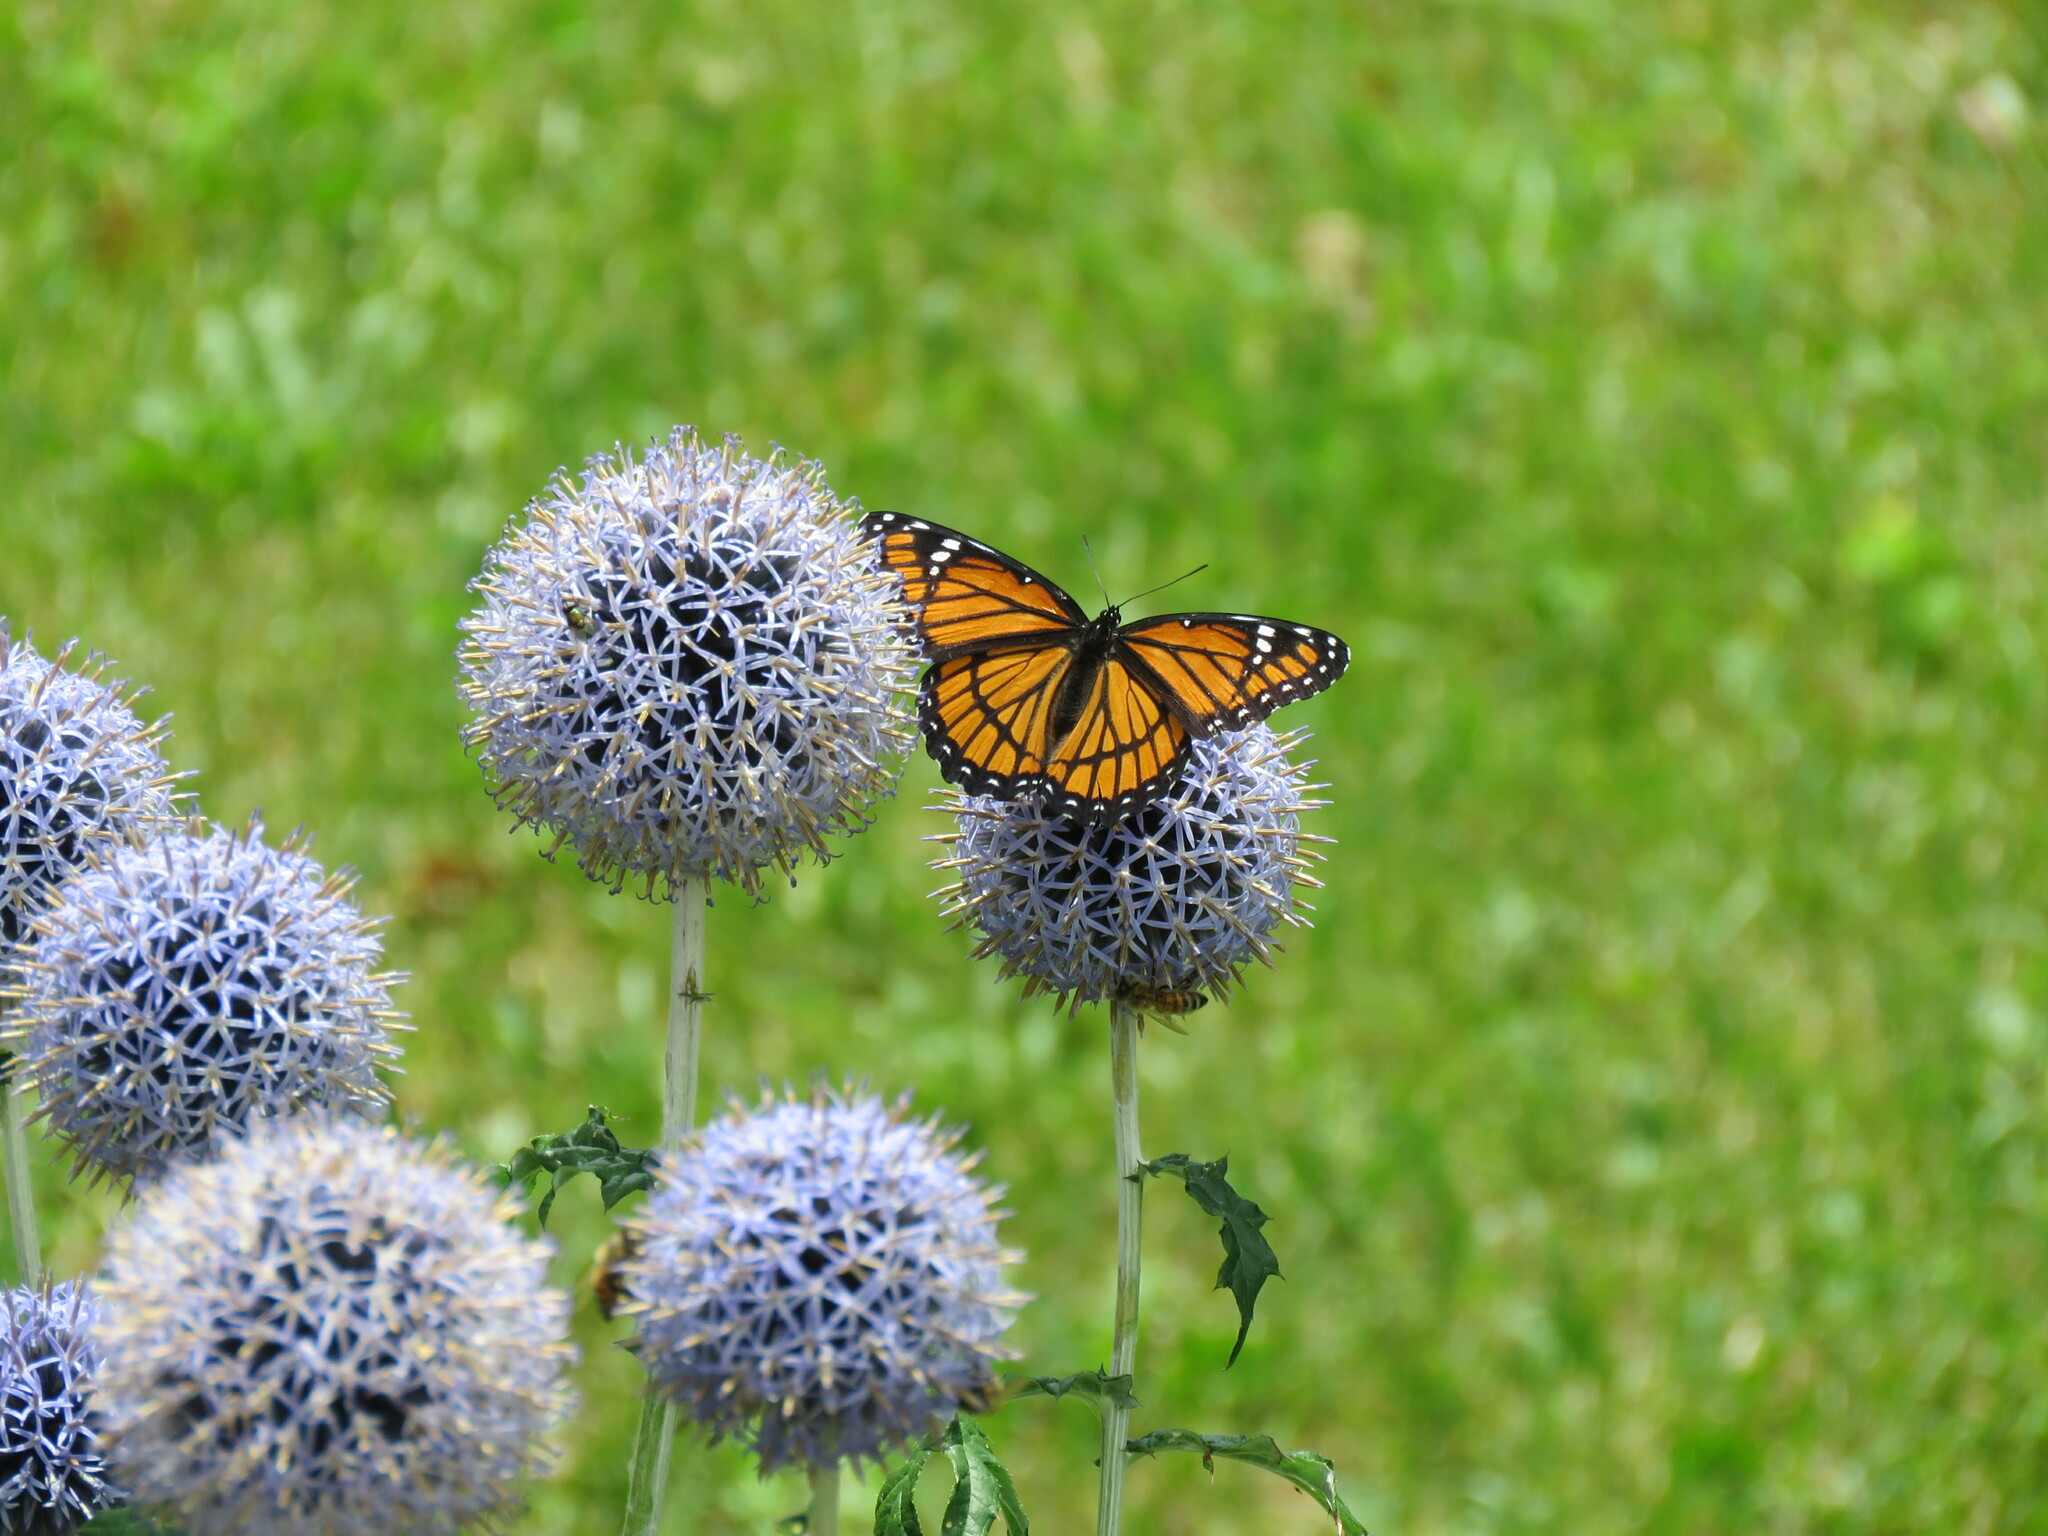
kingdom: Animalia
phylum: Arthropoda
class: Insecta
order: Lepidoptera
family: Nymphalidae
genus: Limenitis
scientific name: Limenitis archippus
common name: Viceroy
